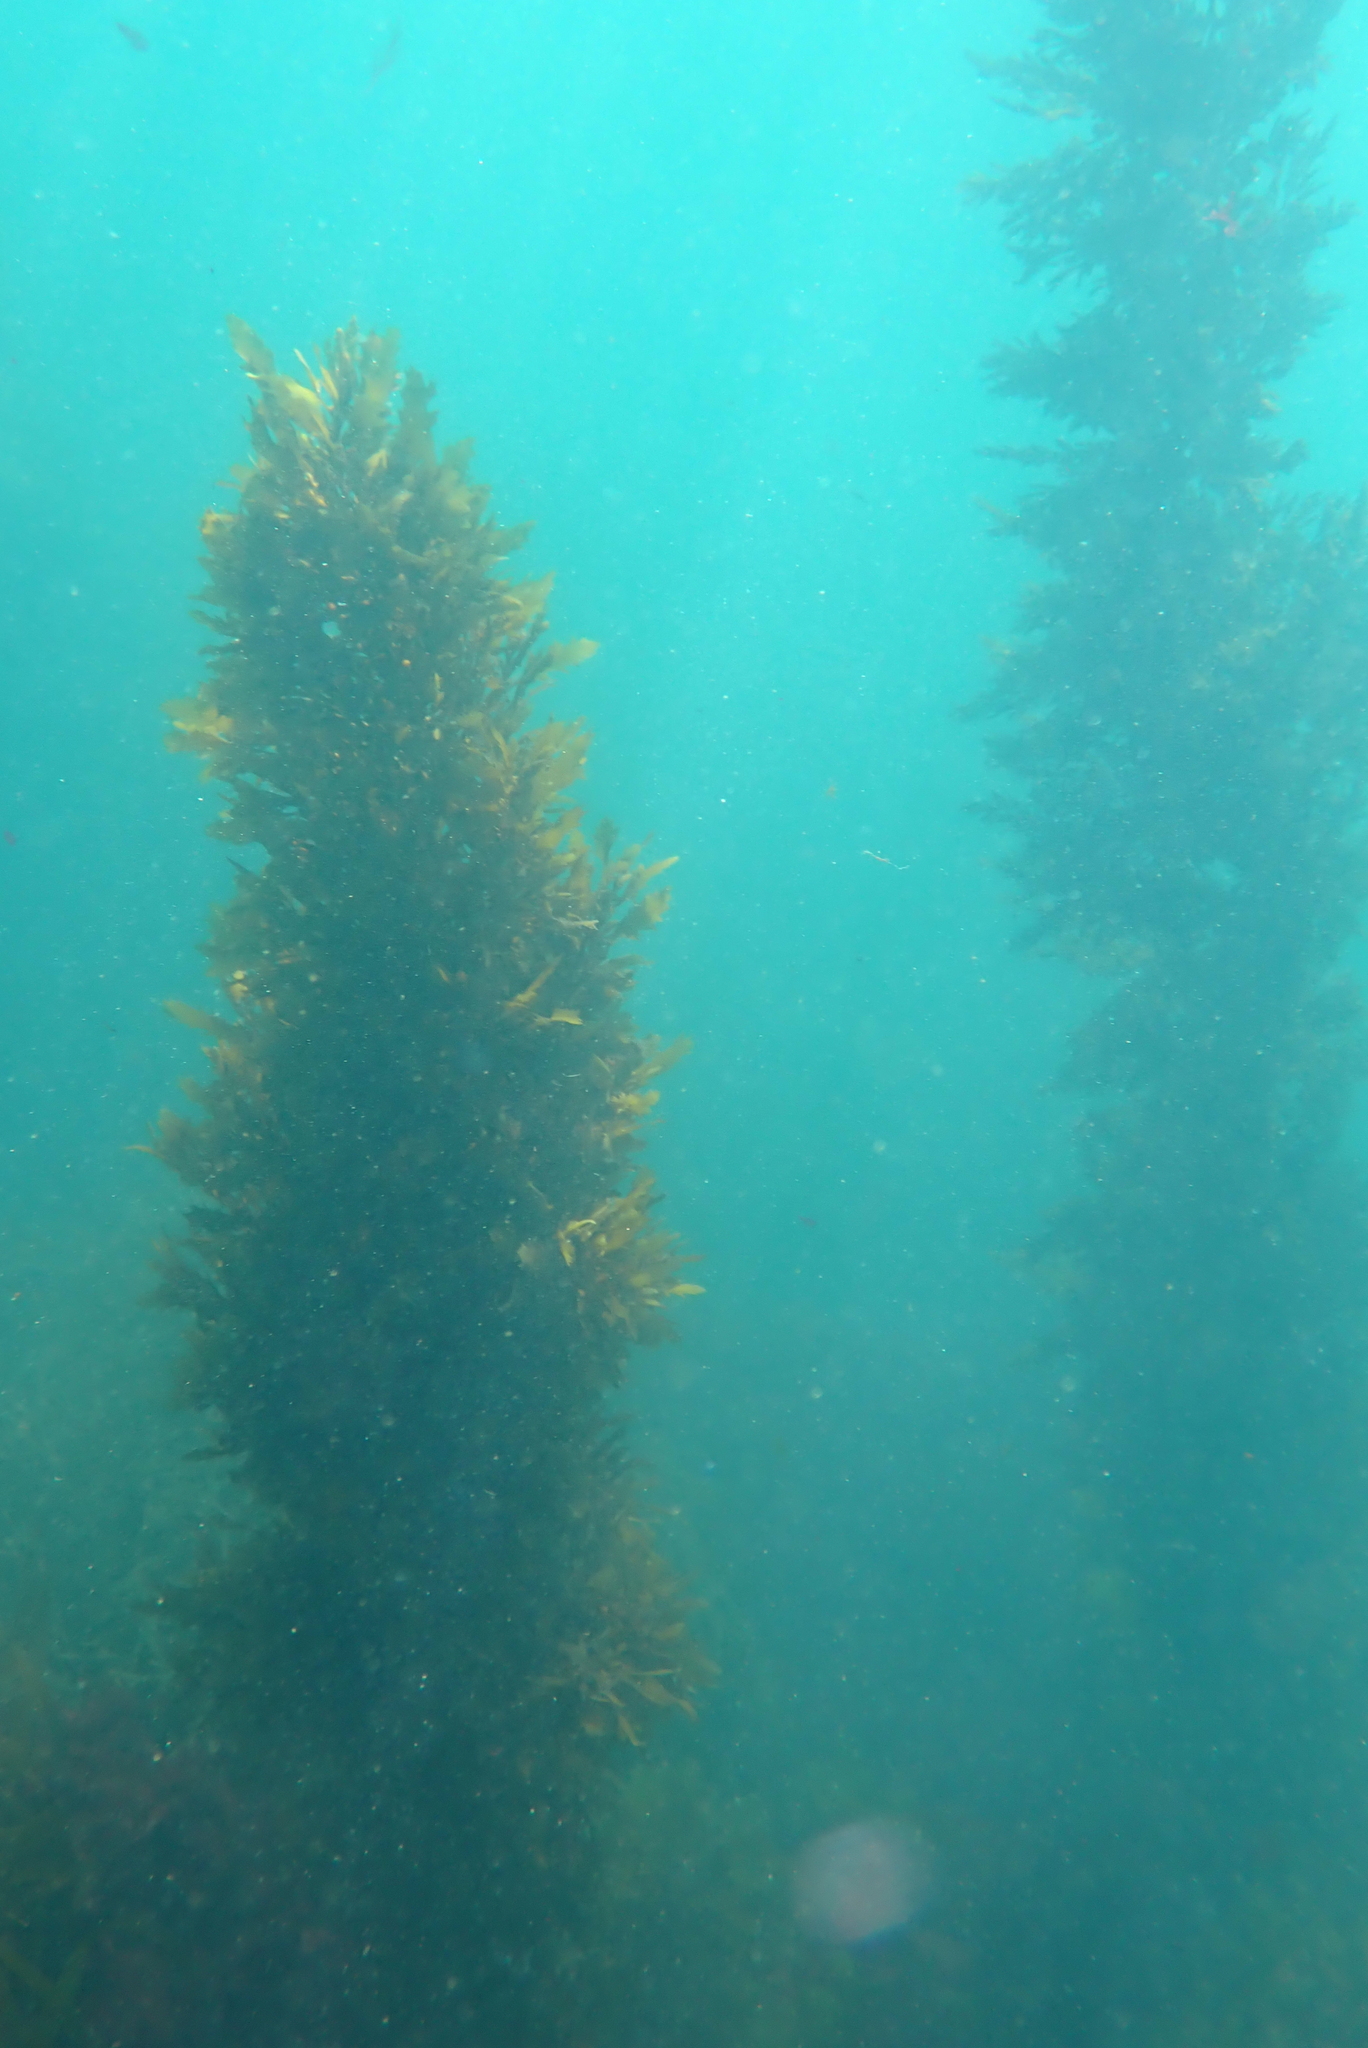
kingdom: Chromista
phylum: Ochrophyta
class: Phaeophyceae
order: Fucales
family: Sargassaceae
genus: Sargassum
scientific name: Sargassum sinclairii
